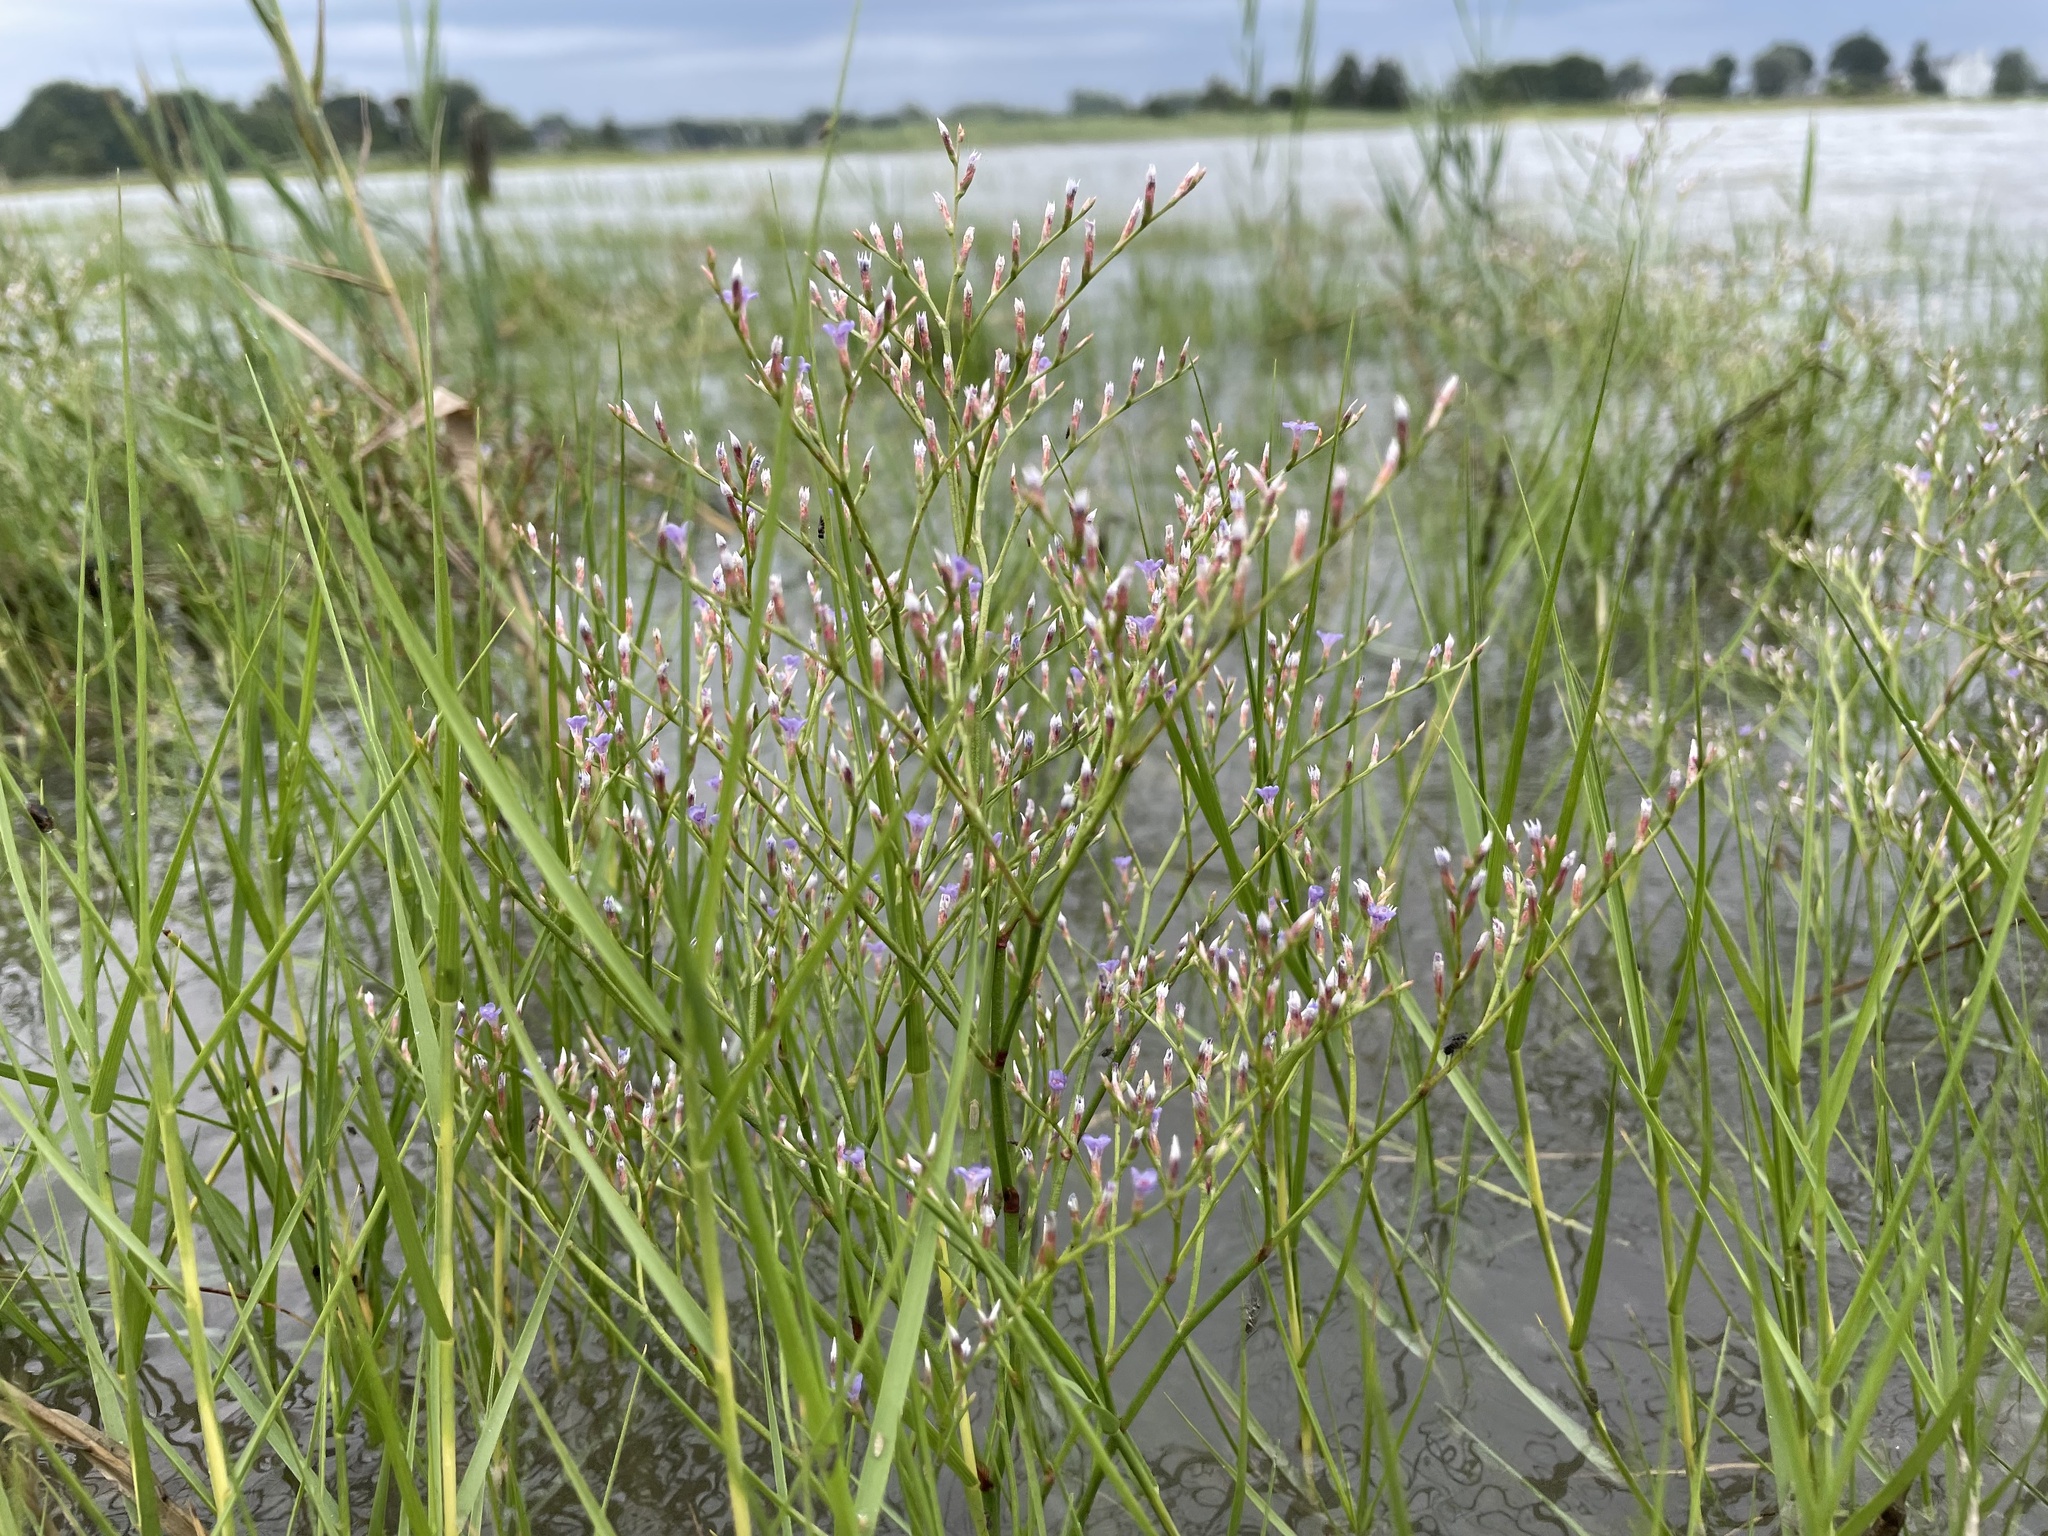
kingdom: Plantae
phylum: Tracheophyta
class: Magnoliopsida
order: Caryophyllales
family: Plumbaginaceae
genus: Limonium
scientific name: Limonium carolinianum
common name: Carolina sea lavender
